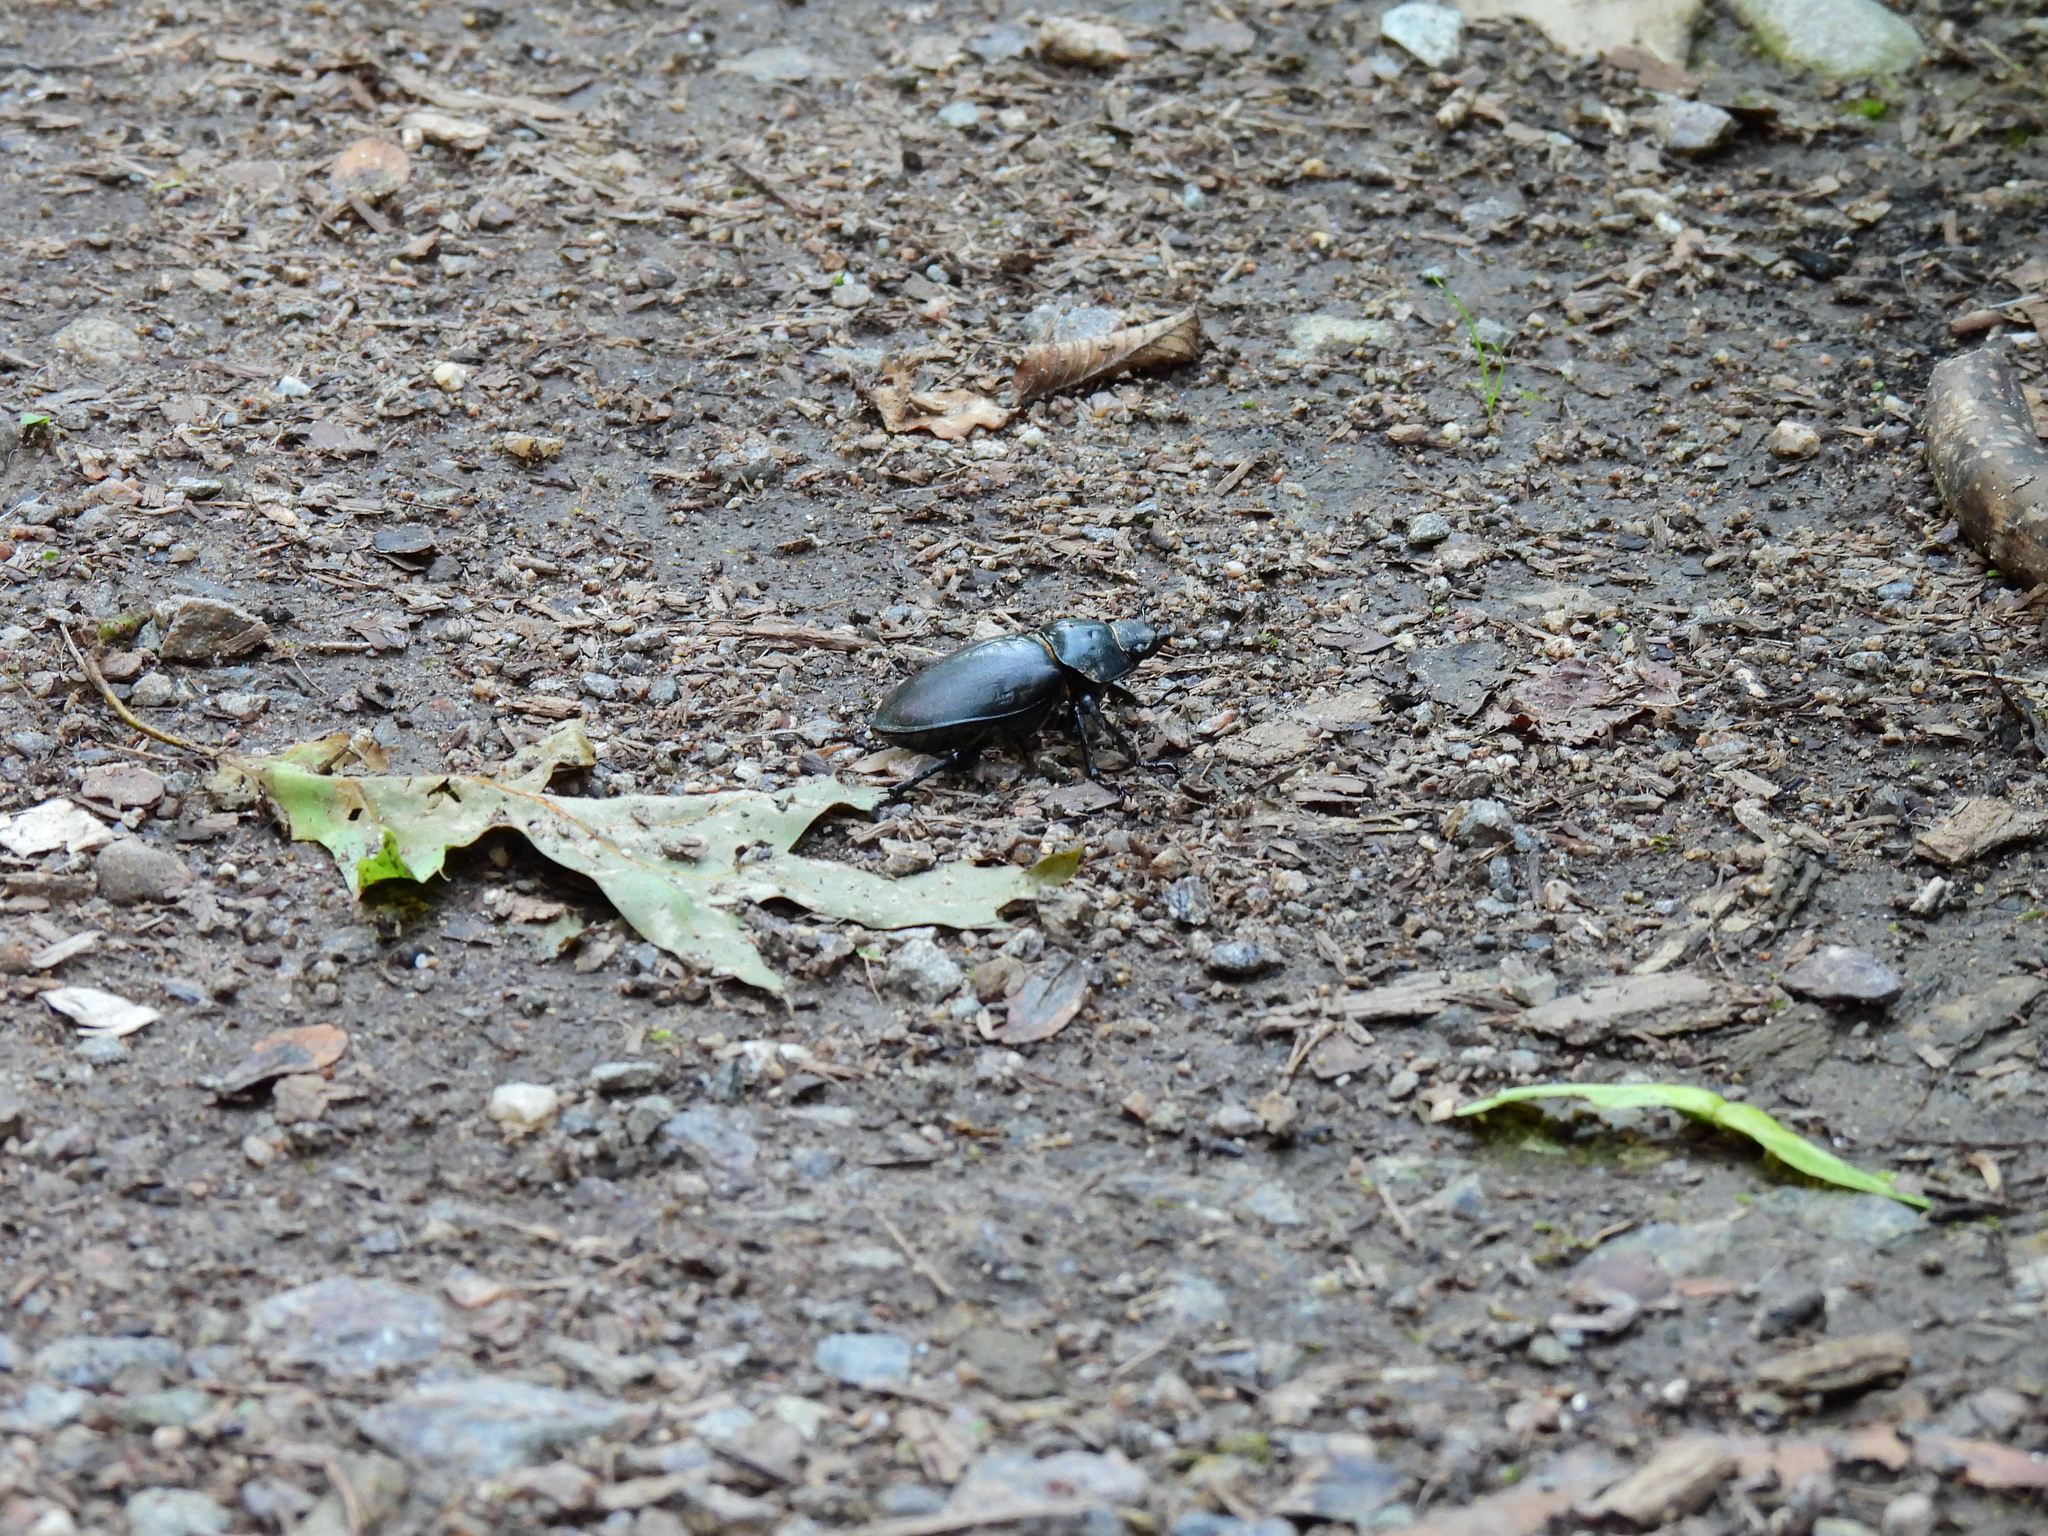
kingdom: Animalia
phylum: Arthropoda
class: Insecta
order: Coleoptera
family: Lucanidae
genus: Lucanus
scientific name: Lucanus cervus
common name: Stag beetle
